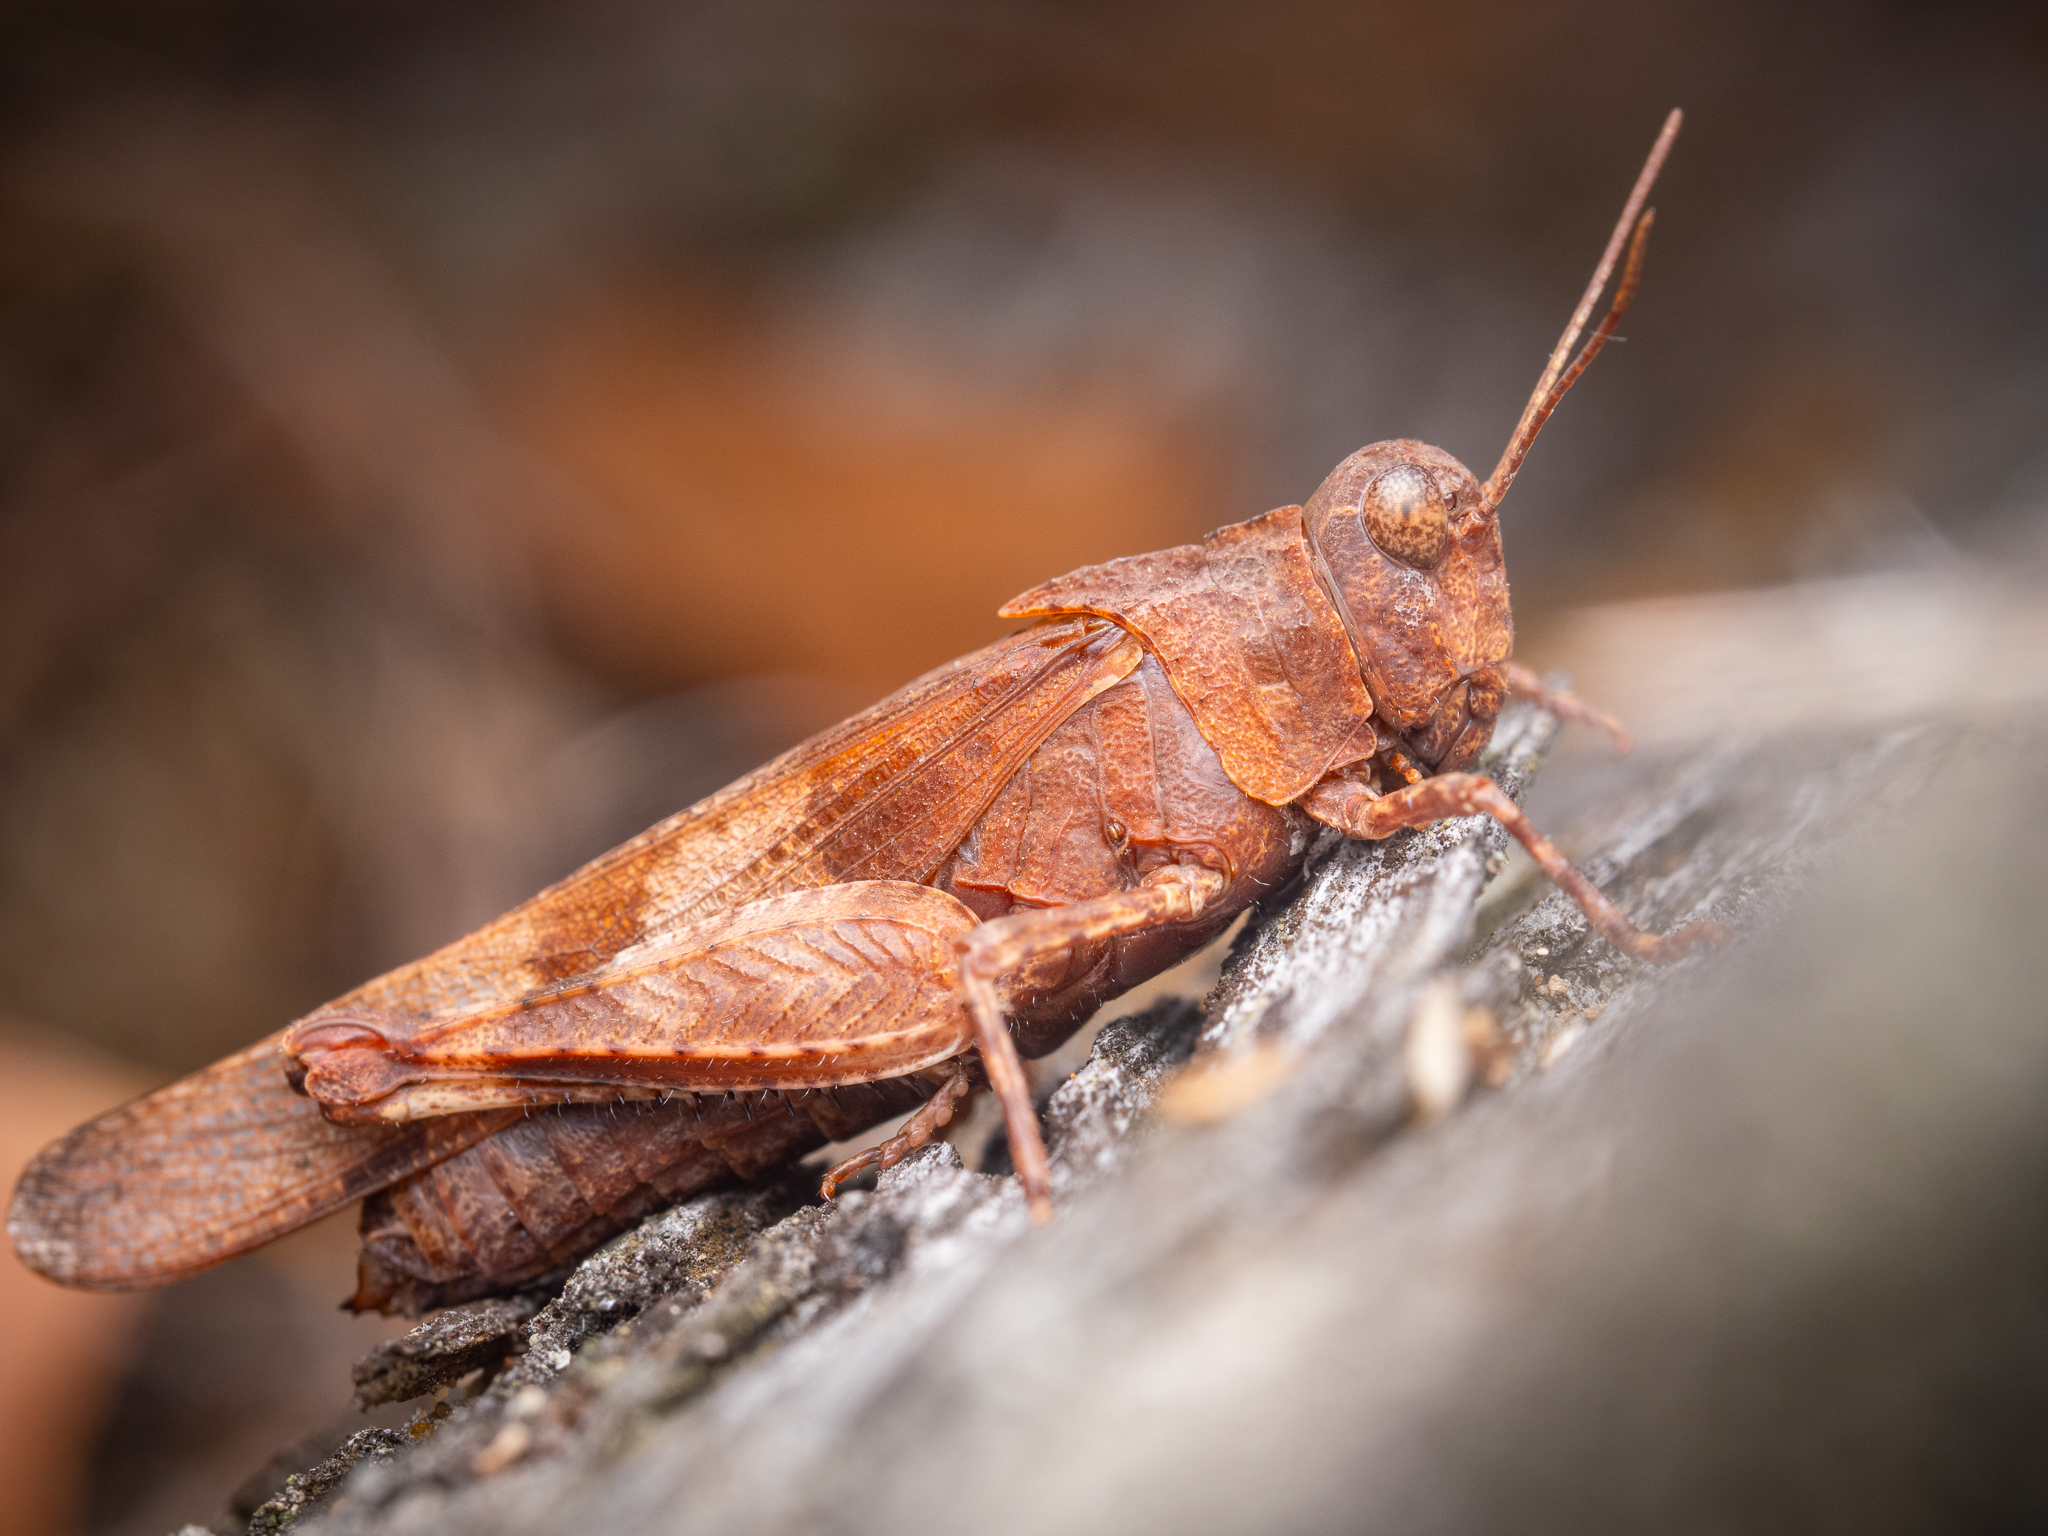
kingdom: Animalia
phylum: Arthropoda
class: Insecta
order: Orthoptera
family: Acrididae
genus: Oedipoda
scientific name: Oedipoda caerulescens
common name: Blue-winged grasshopper
